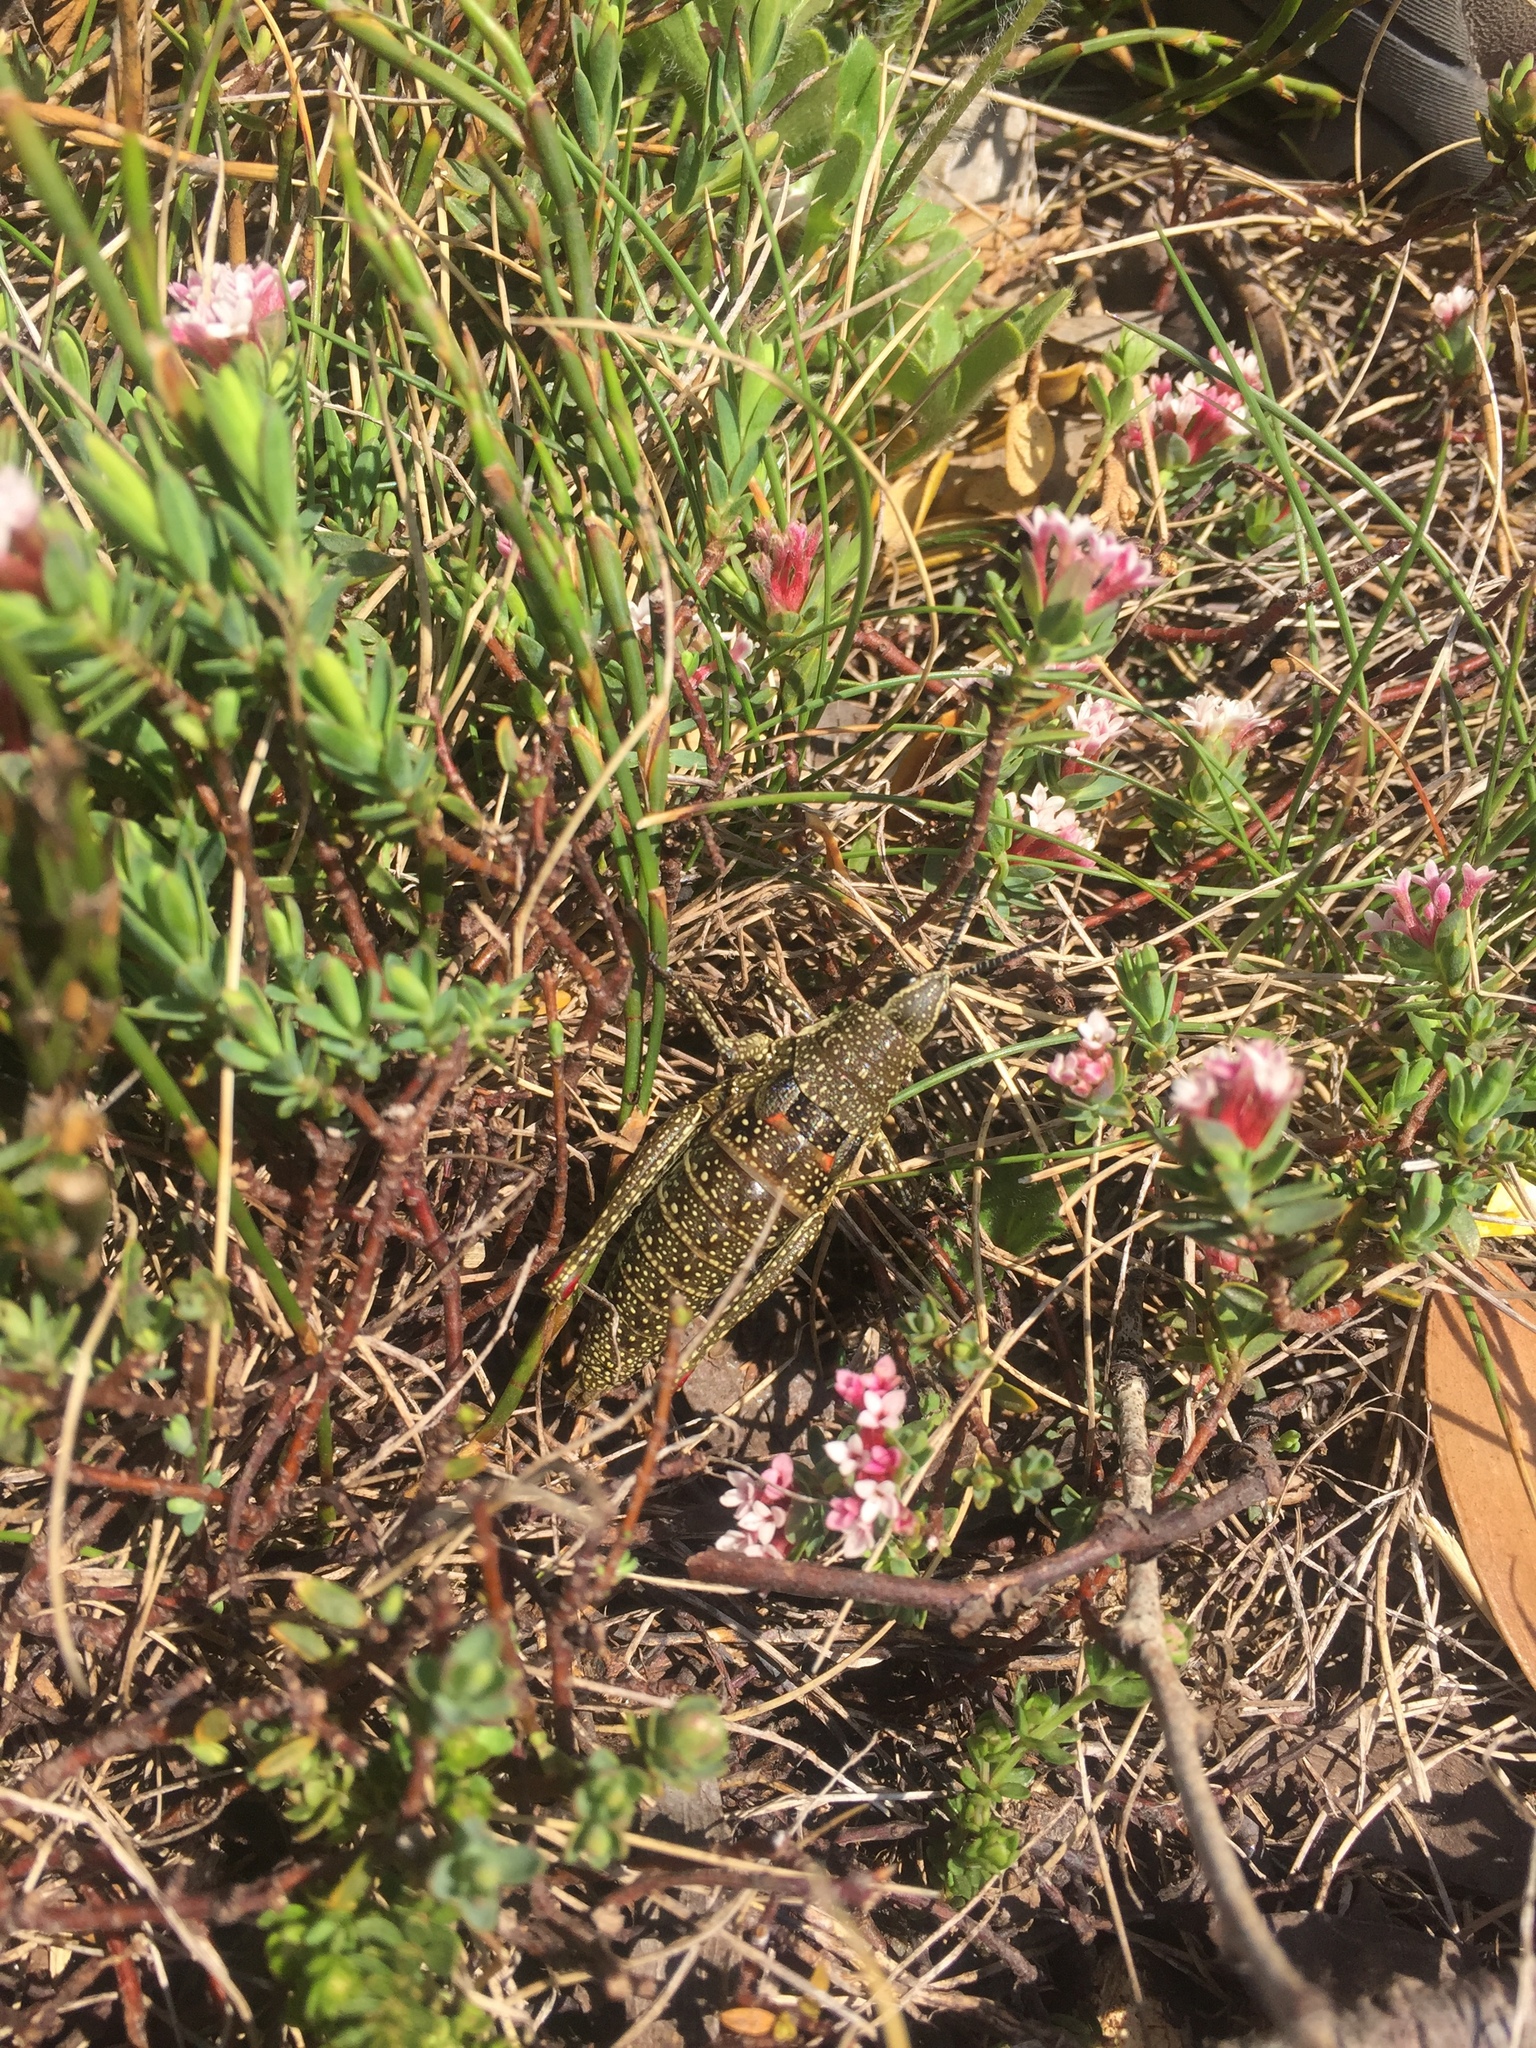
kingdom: Animalia
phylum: Arthropoda
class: Insecta
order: Orthoptera
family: Pyrgomorphidae
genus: Monistria
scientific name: Monistria concinna
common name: Southern pyrgomorph
